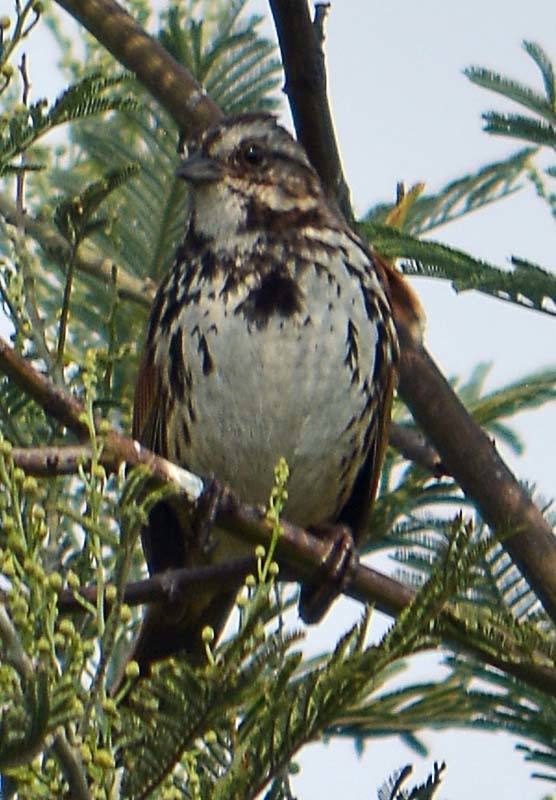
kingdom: Animalia
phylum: Chordata
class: Aves
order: Passeriformes
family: Passerellidae
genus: Melospiza
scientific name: Melospiza melodia
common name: Song sparrow
